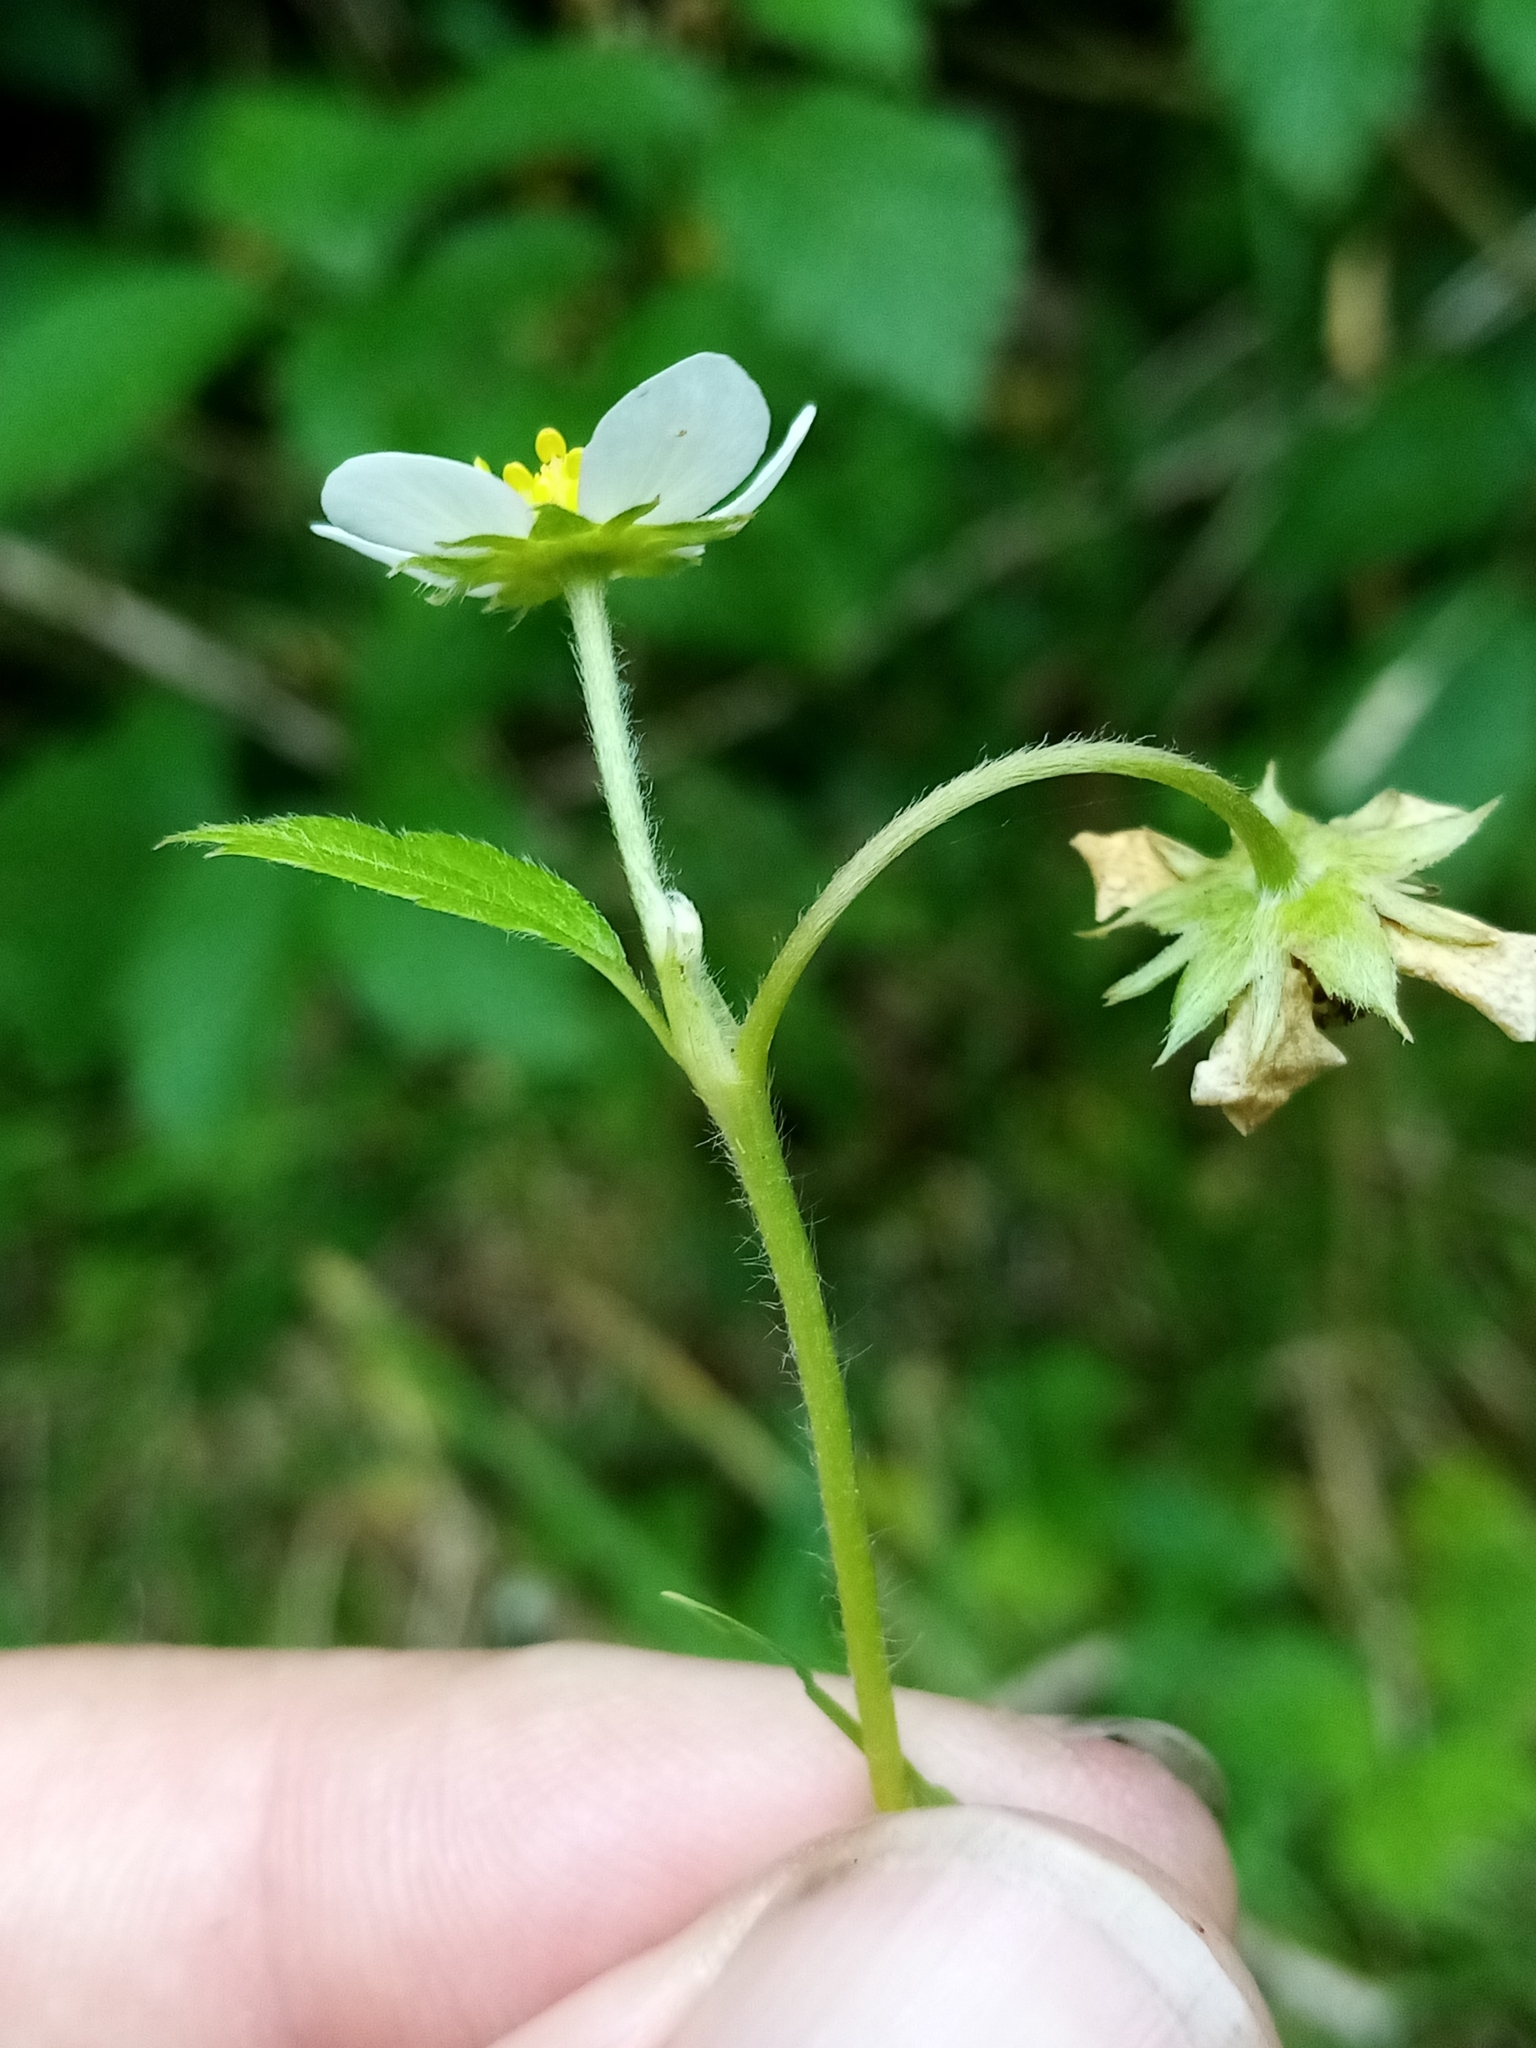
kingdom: Plantae
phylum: Tracheophyta
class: Magnoliopsida
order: Rosales
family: Rosaceae
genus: Fragaria
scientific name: Fragaria vesca
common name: Wild strawberry
